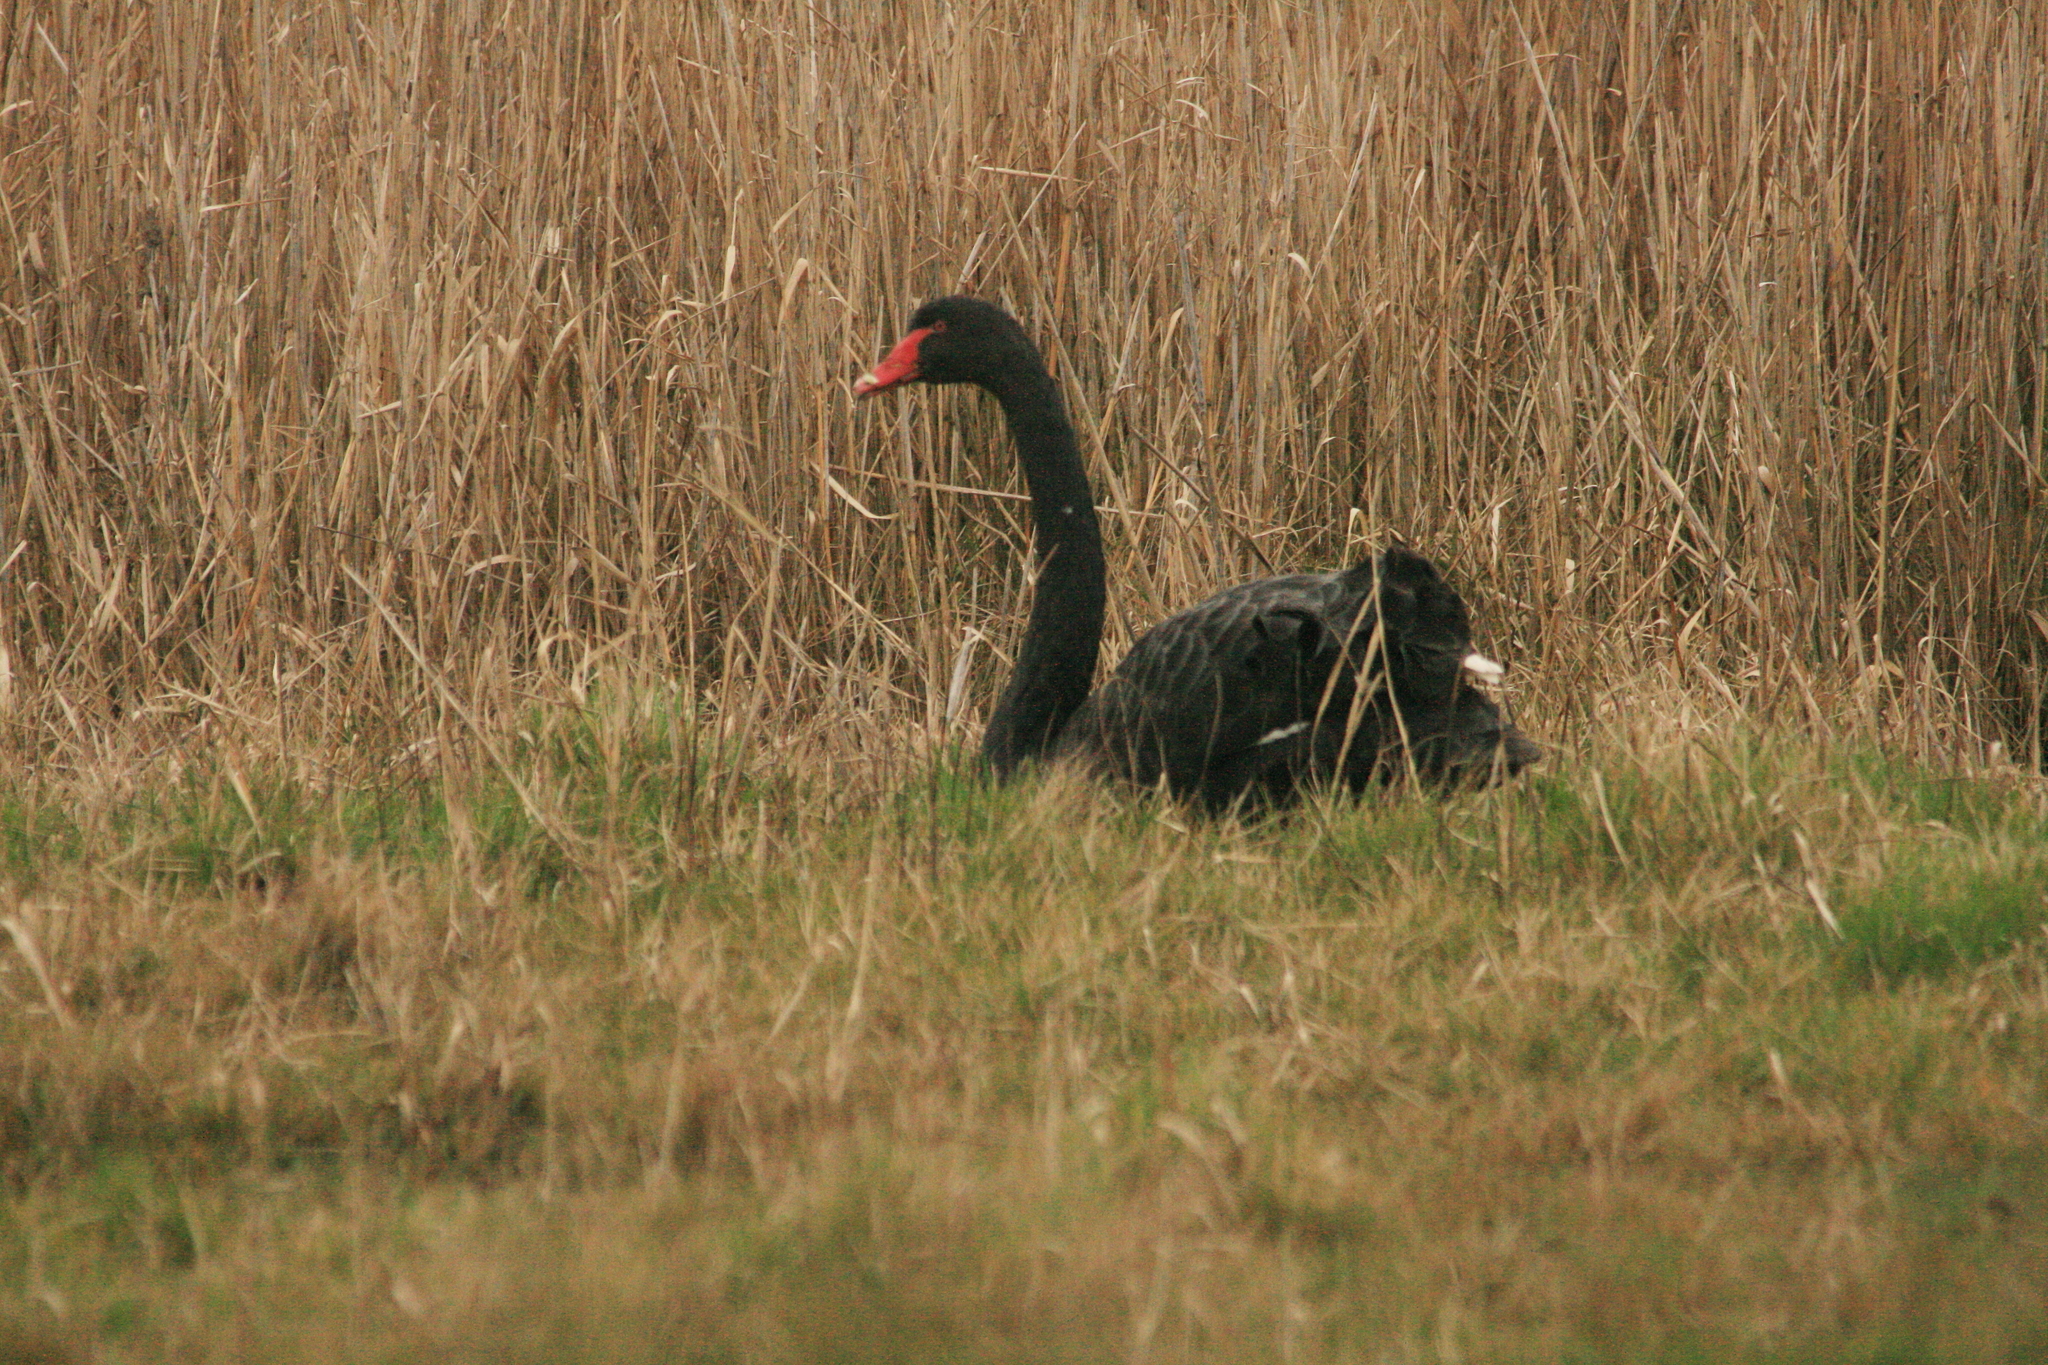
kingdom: Animalia
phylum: Chordata
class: Aves
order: Anseriformes
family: Anatidae
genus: Cygnus
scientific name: Cygnus atratus
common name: Black swan
